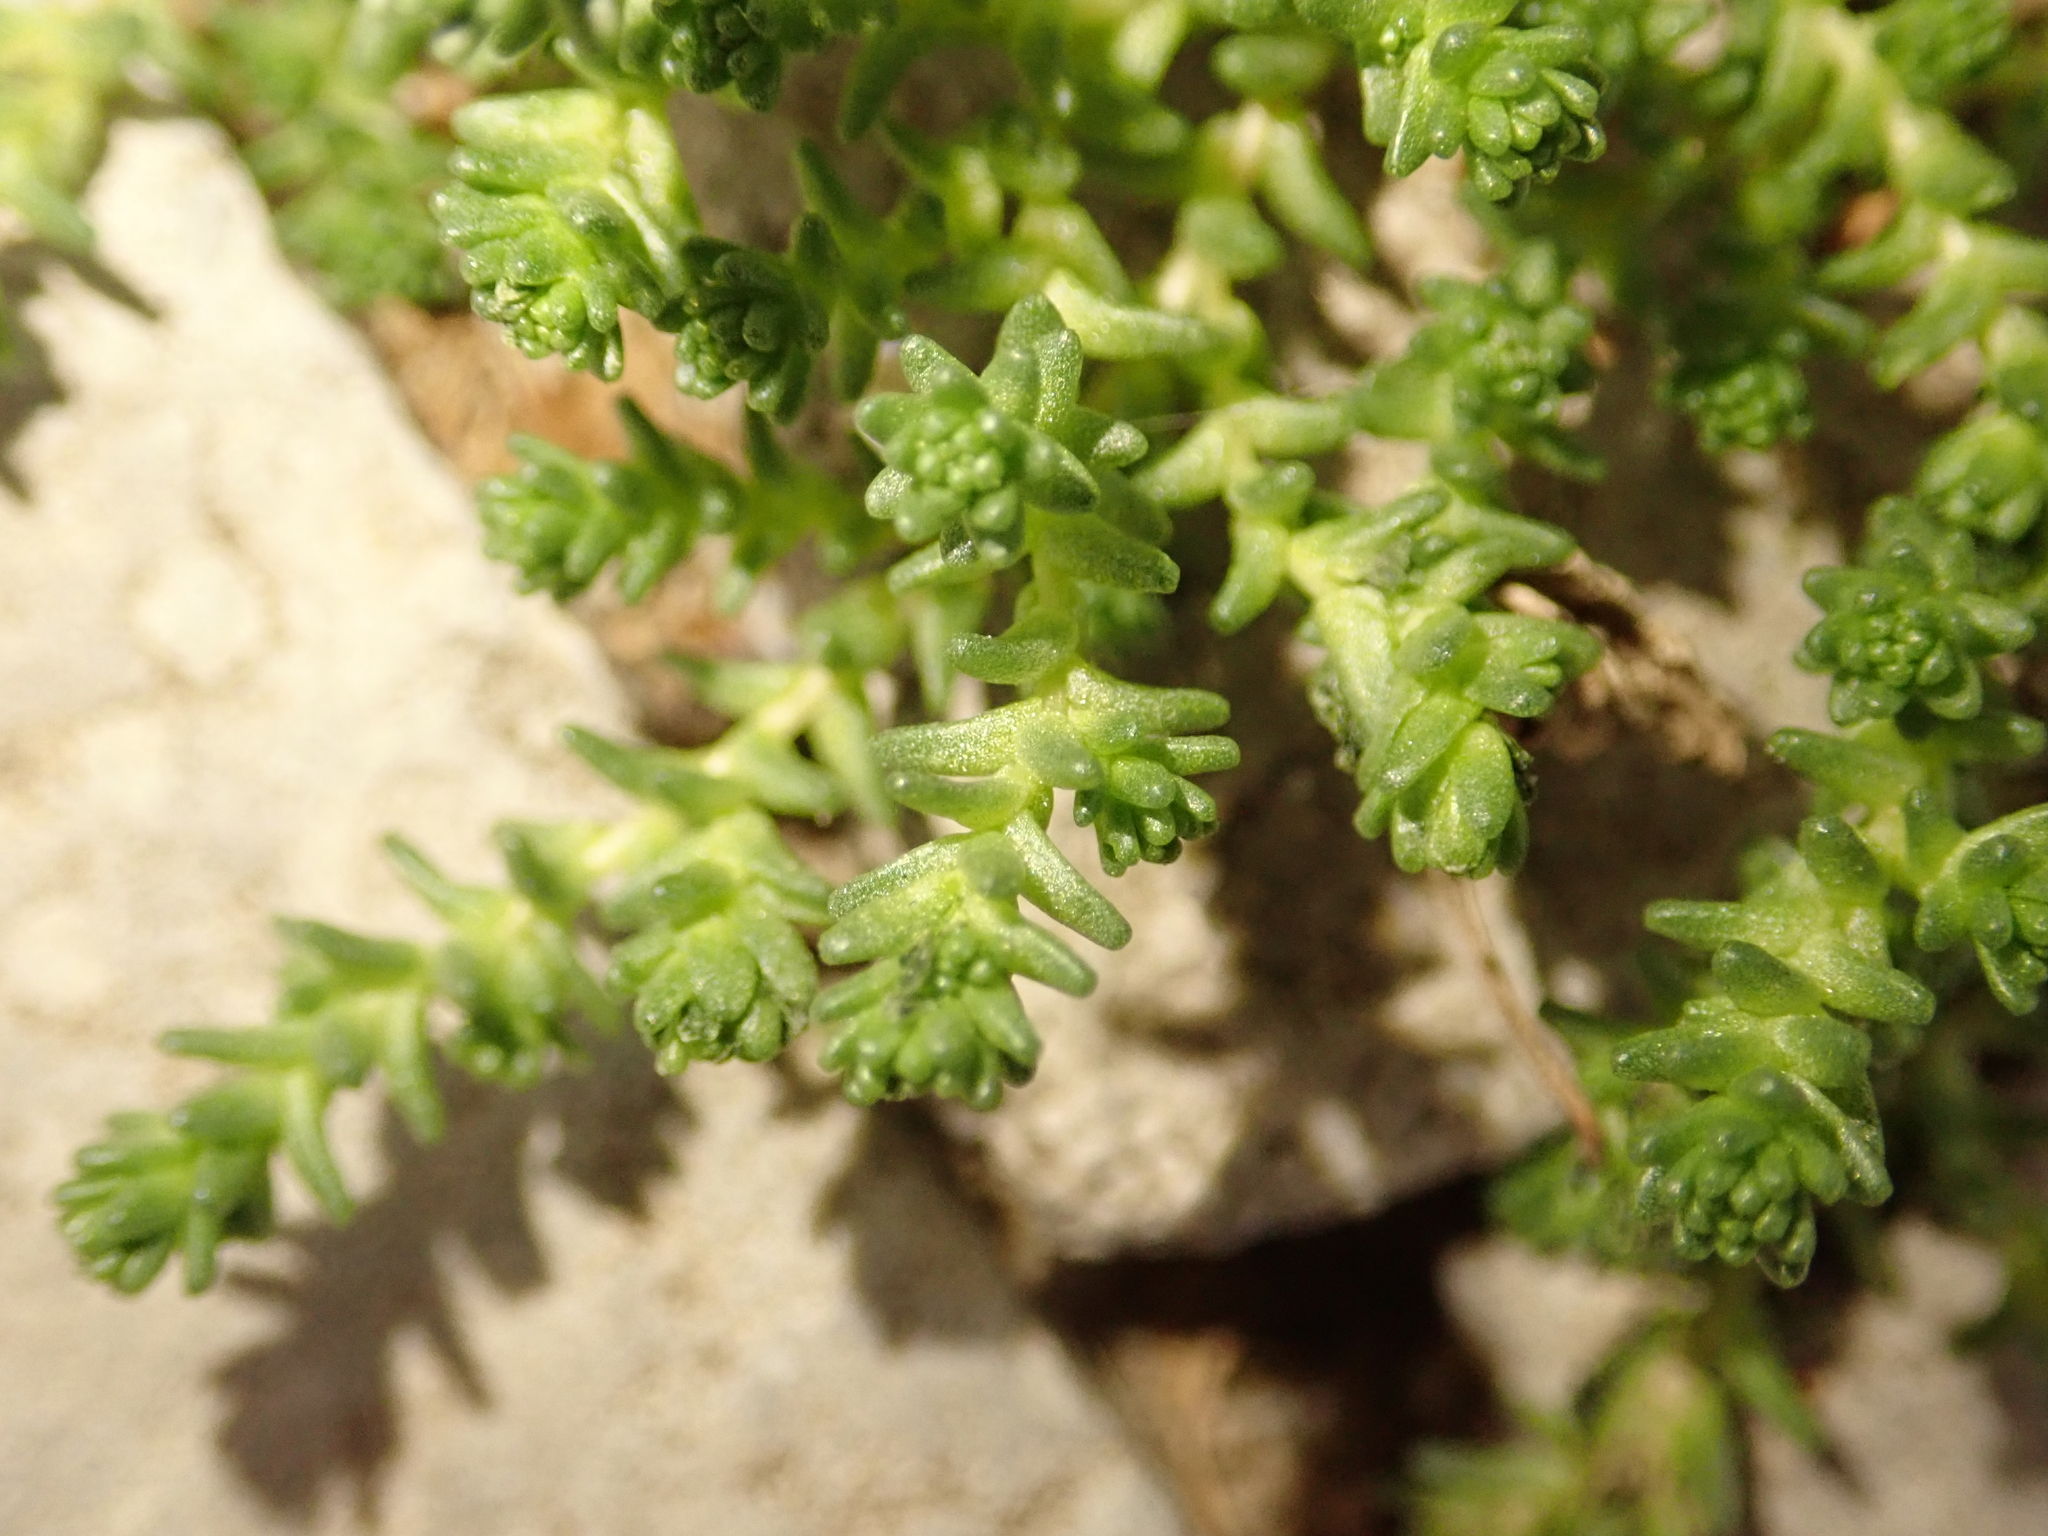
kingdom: Plantae
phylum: Tracheophyta
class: Magnoliopsida
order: Saxifragales
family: Crassulaceae
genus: Sedum
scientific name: Sedum acre
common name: Biting stonecrop
